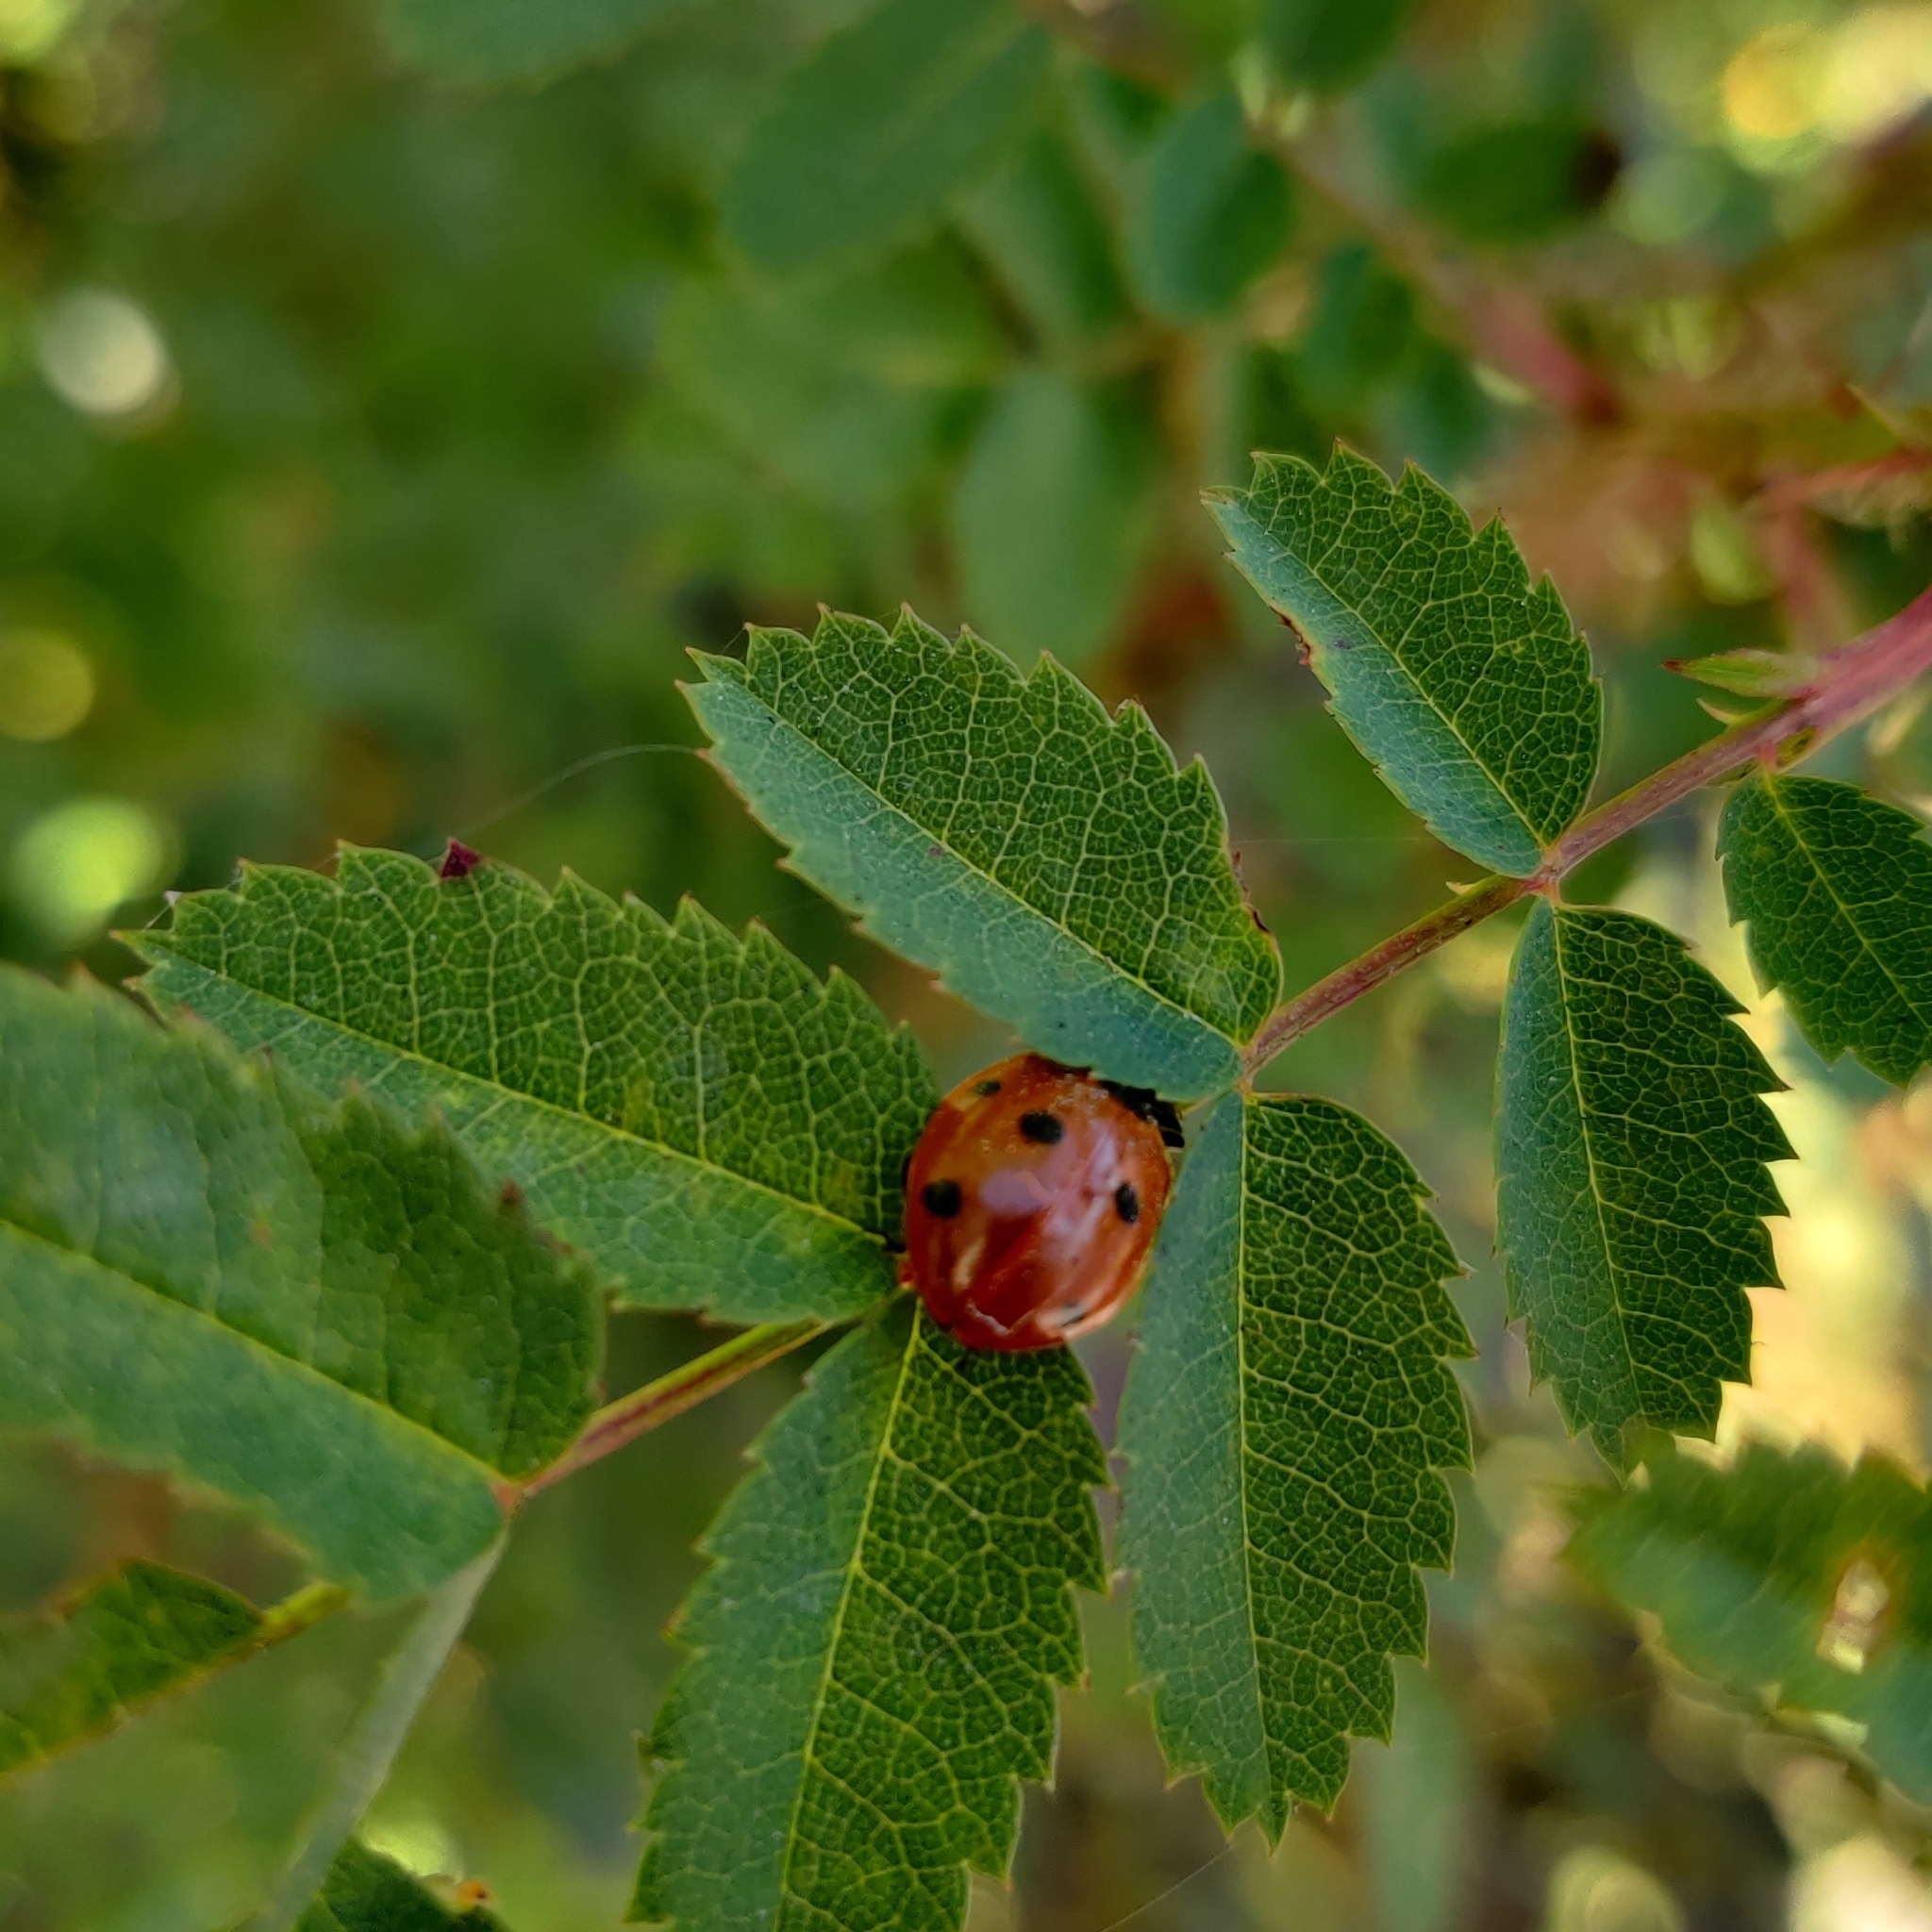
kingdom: Animalia
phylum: Arthropoda
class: Insecta
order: Coleoptera
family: Coccinellidae
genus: Coccinella
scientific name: Coccinella septempunctata
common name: Sevenspotted lady beetle
